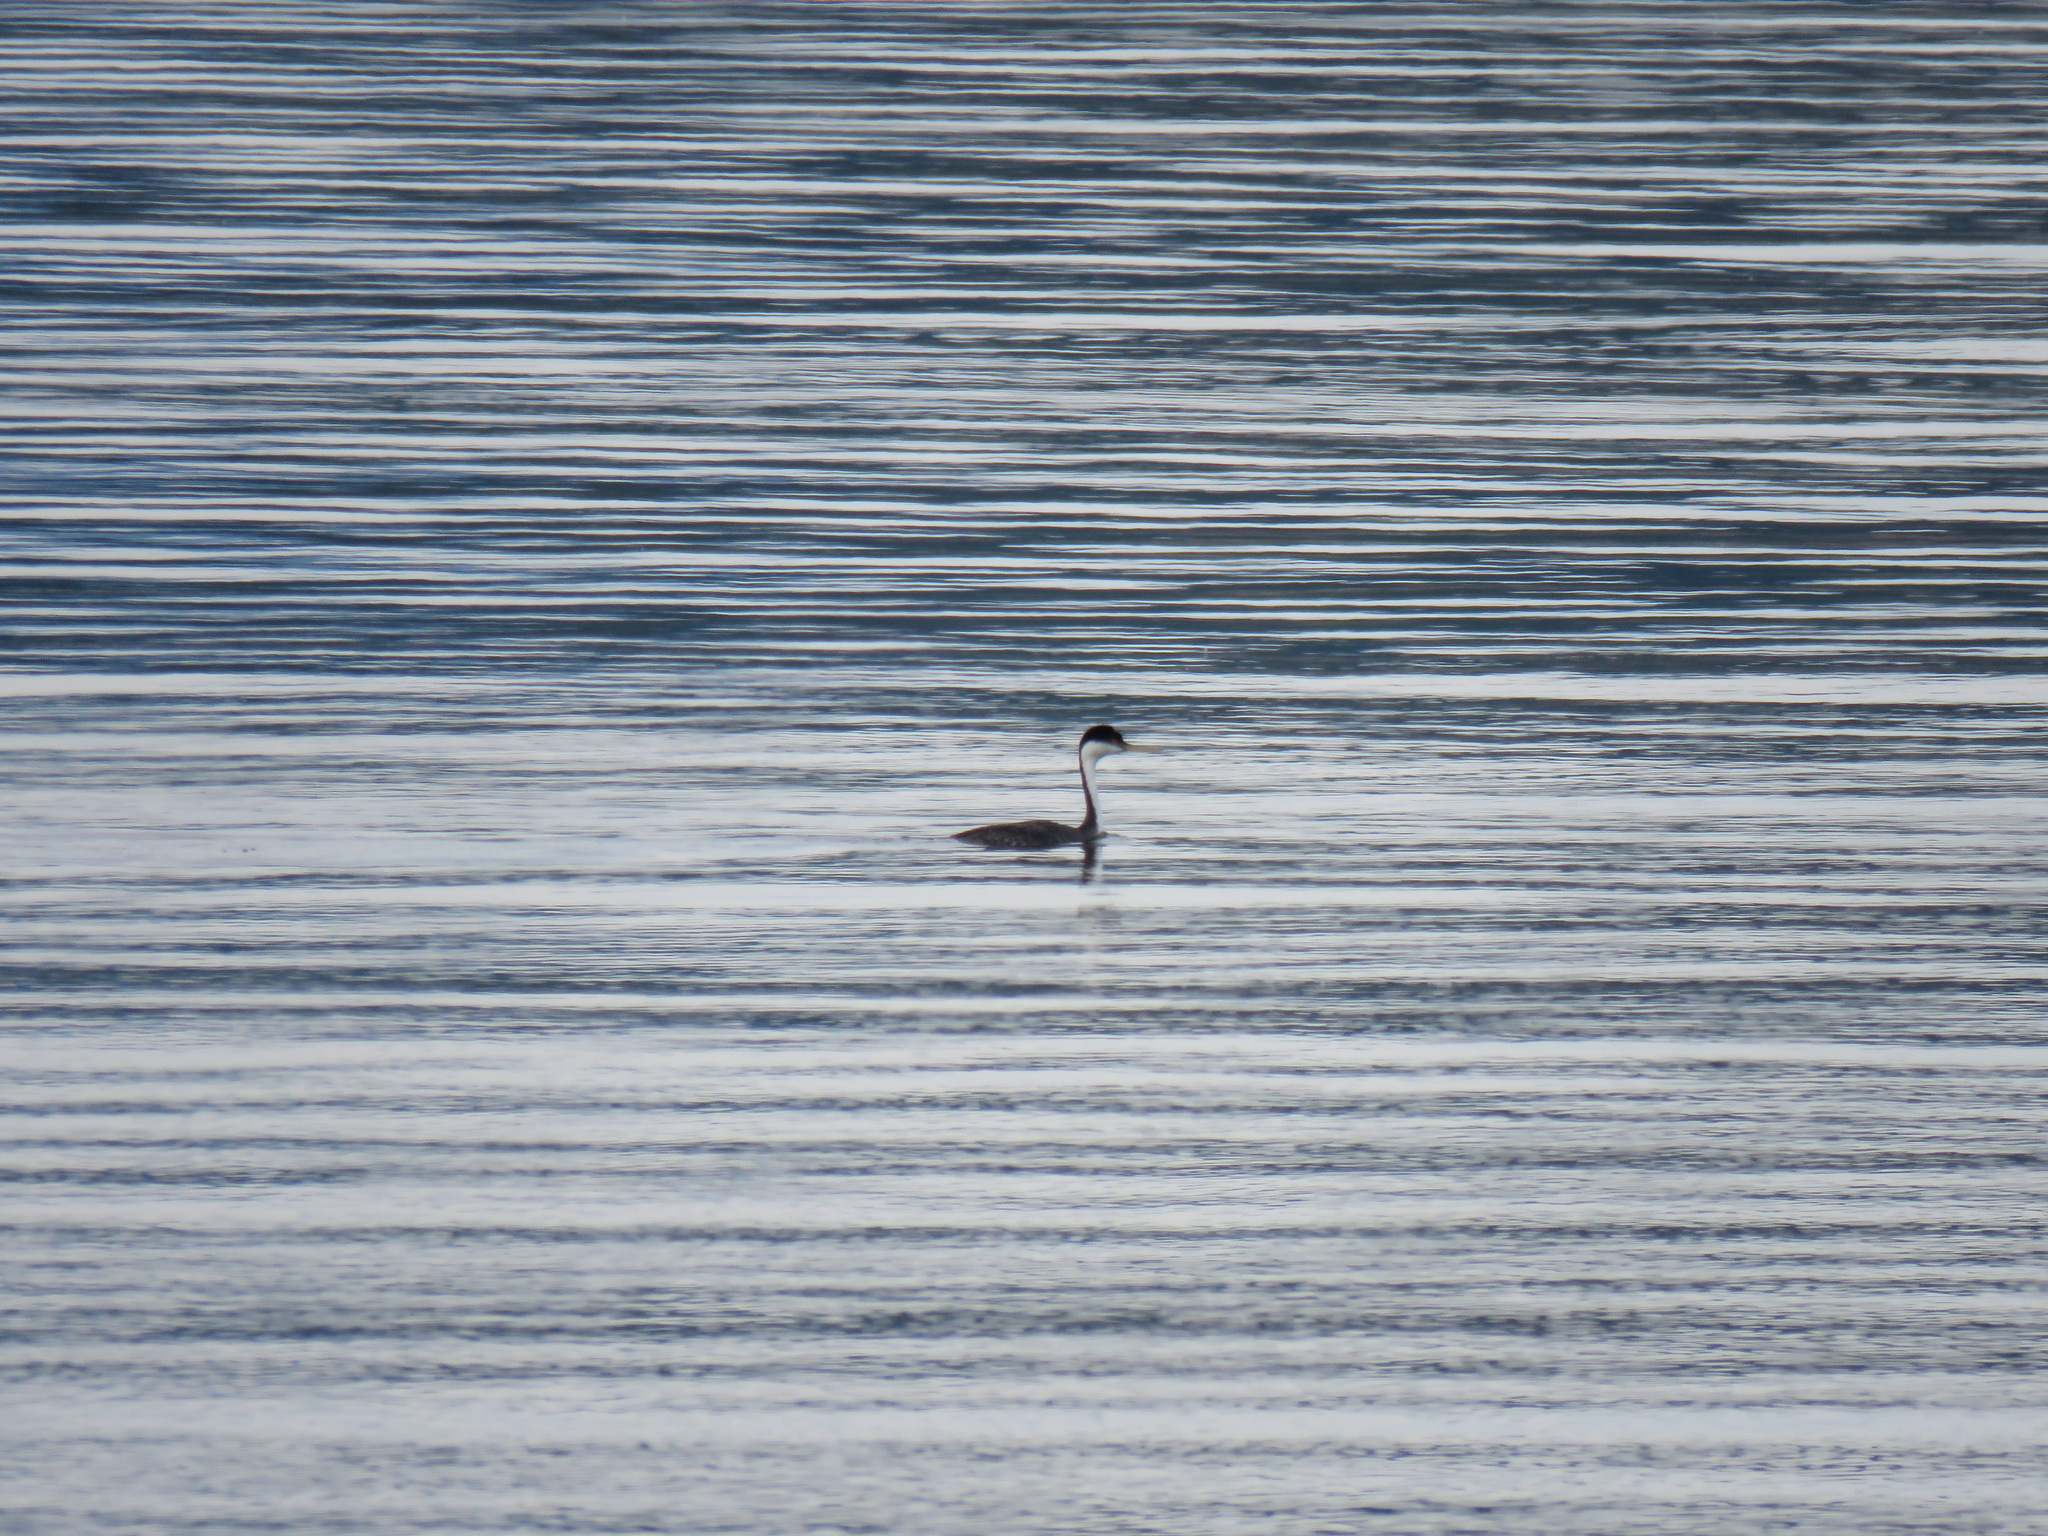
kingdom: Animalia
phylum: Chordata
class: Aves
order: Podicipediformes
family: Podicipedidae
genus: Aechmophorus
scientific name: Aechmophorus occidentalis
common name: Western grebe
